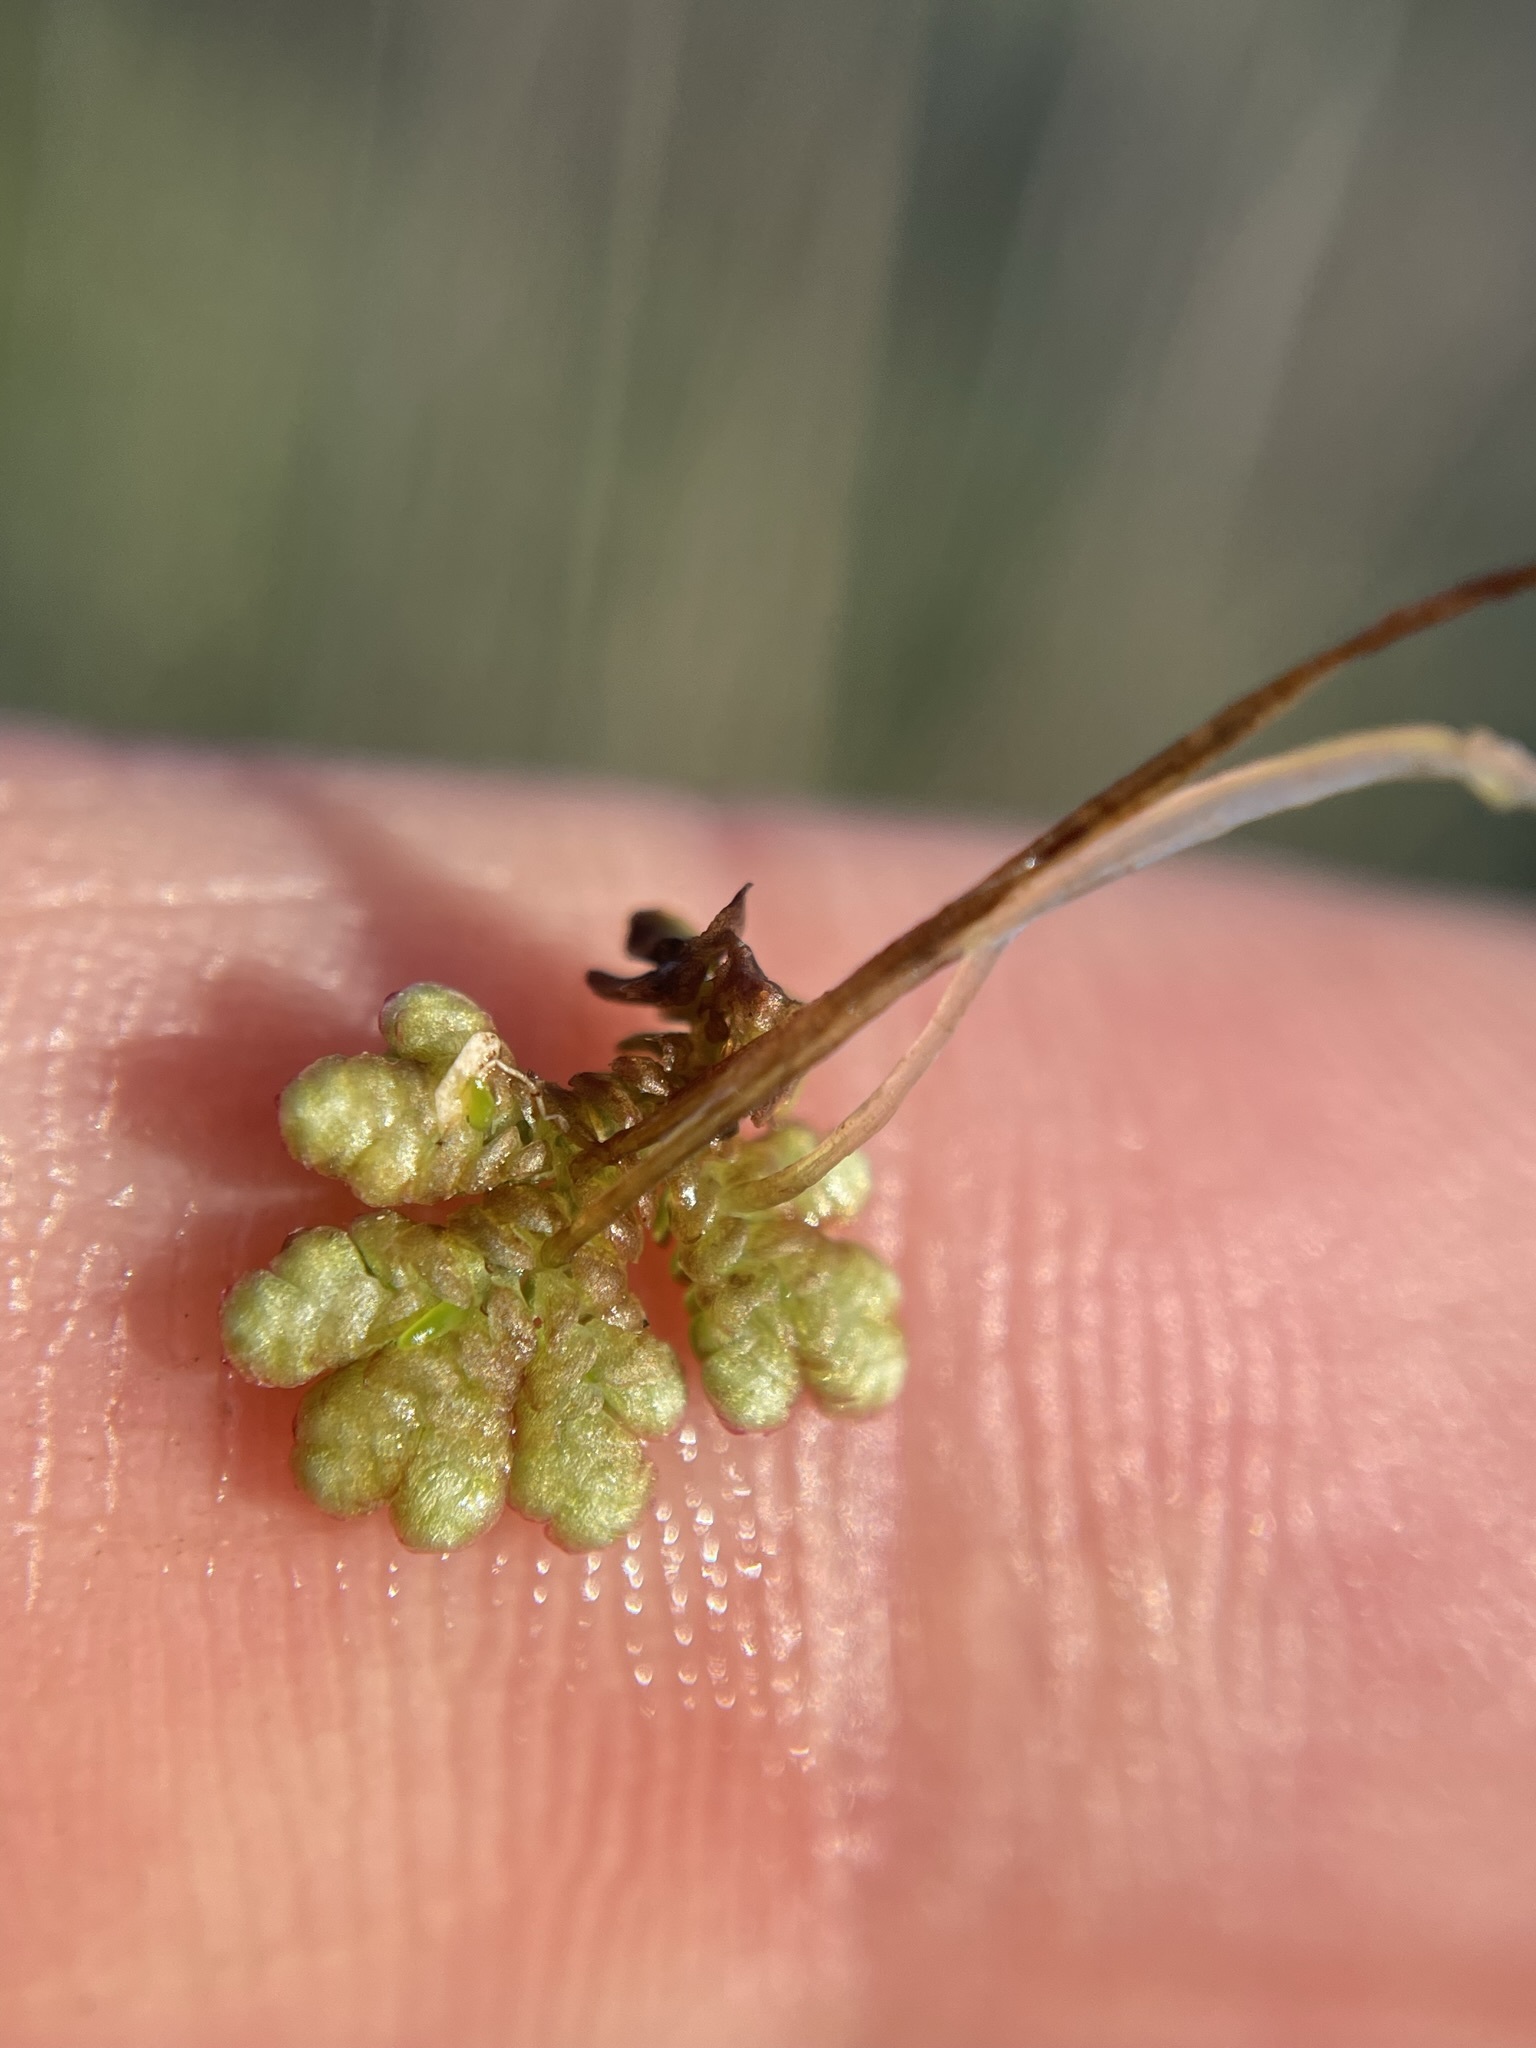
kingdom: Plantae
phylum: Tracheophyta
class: Polypodiopsida
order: Salviniales
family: Salviniaceae
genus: Azolla
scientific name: Azolla cristata
